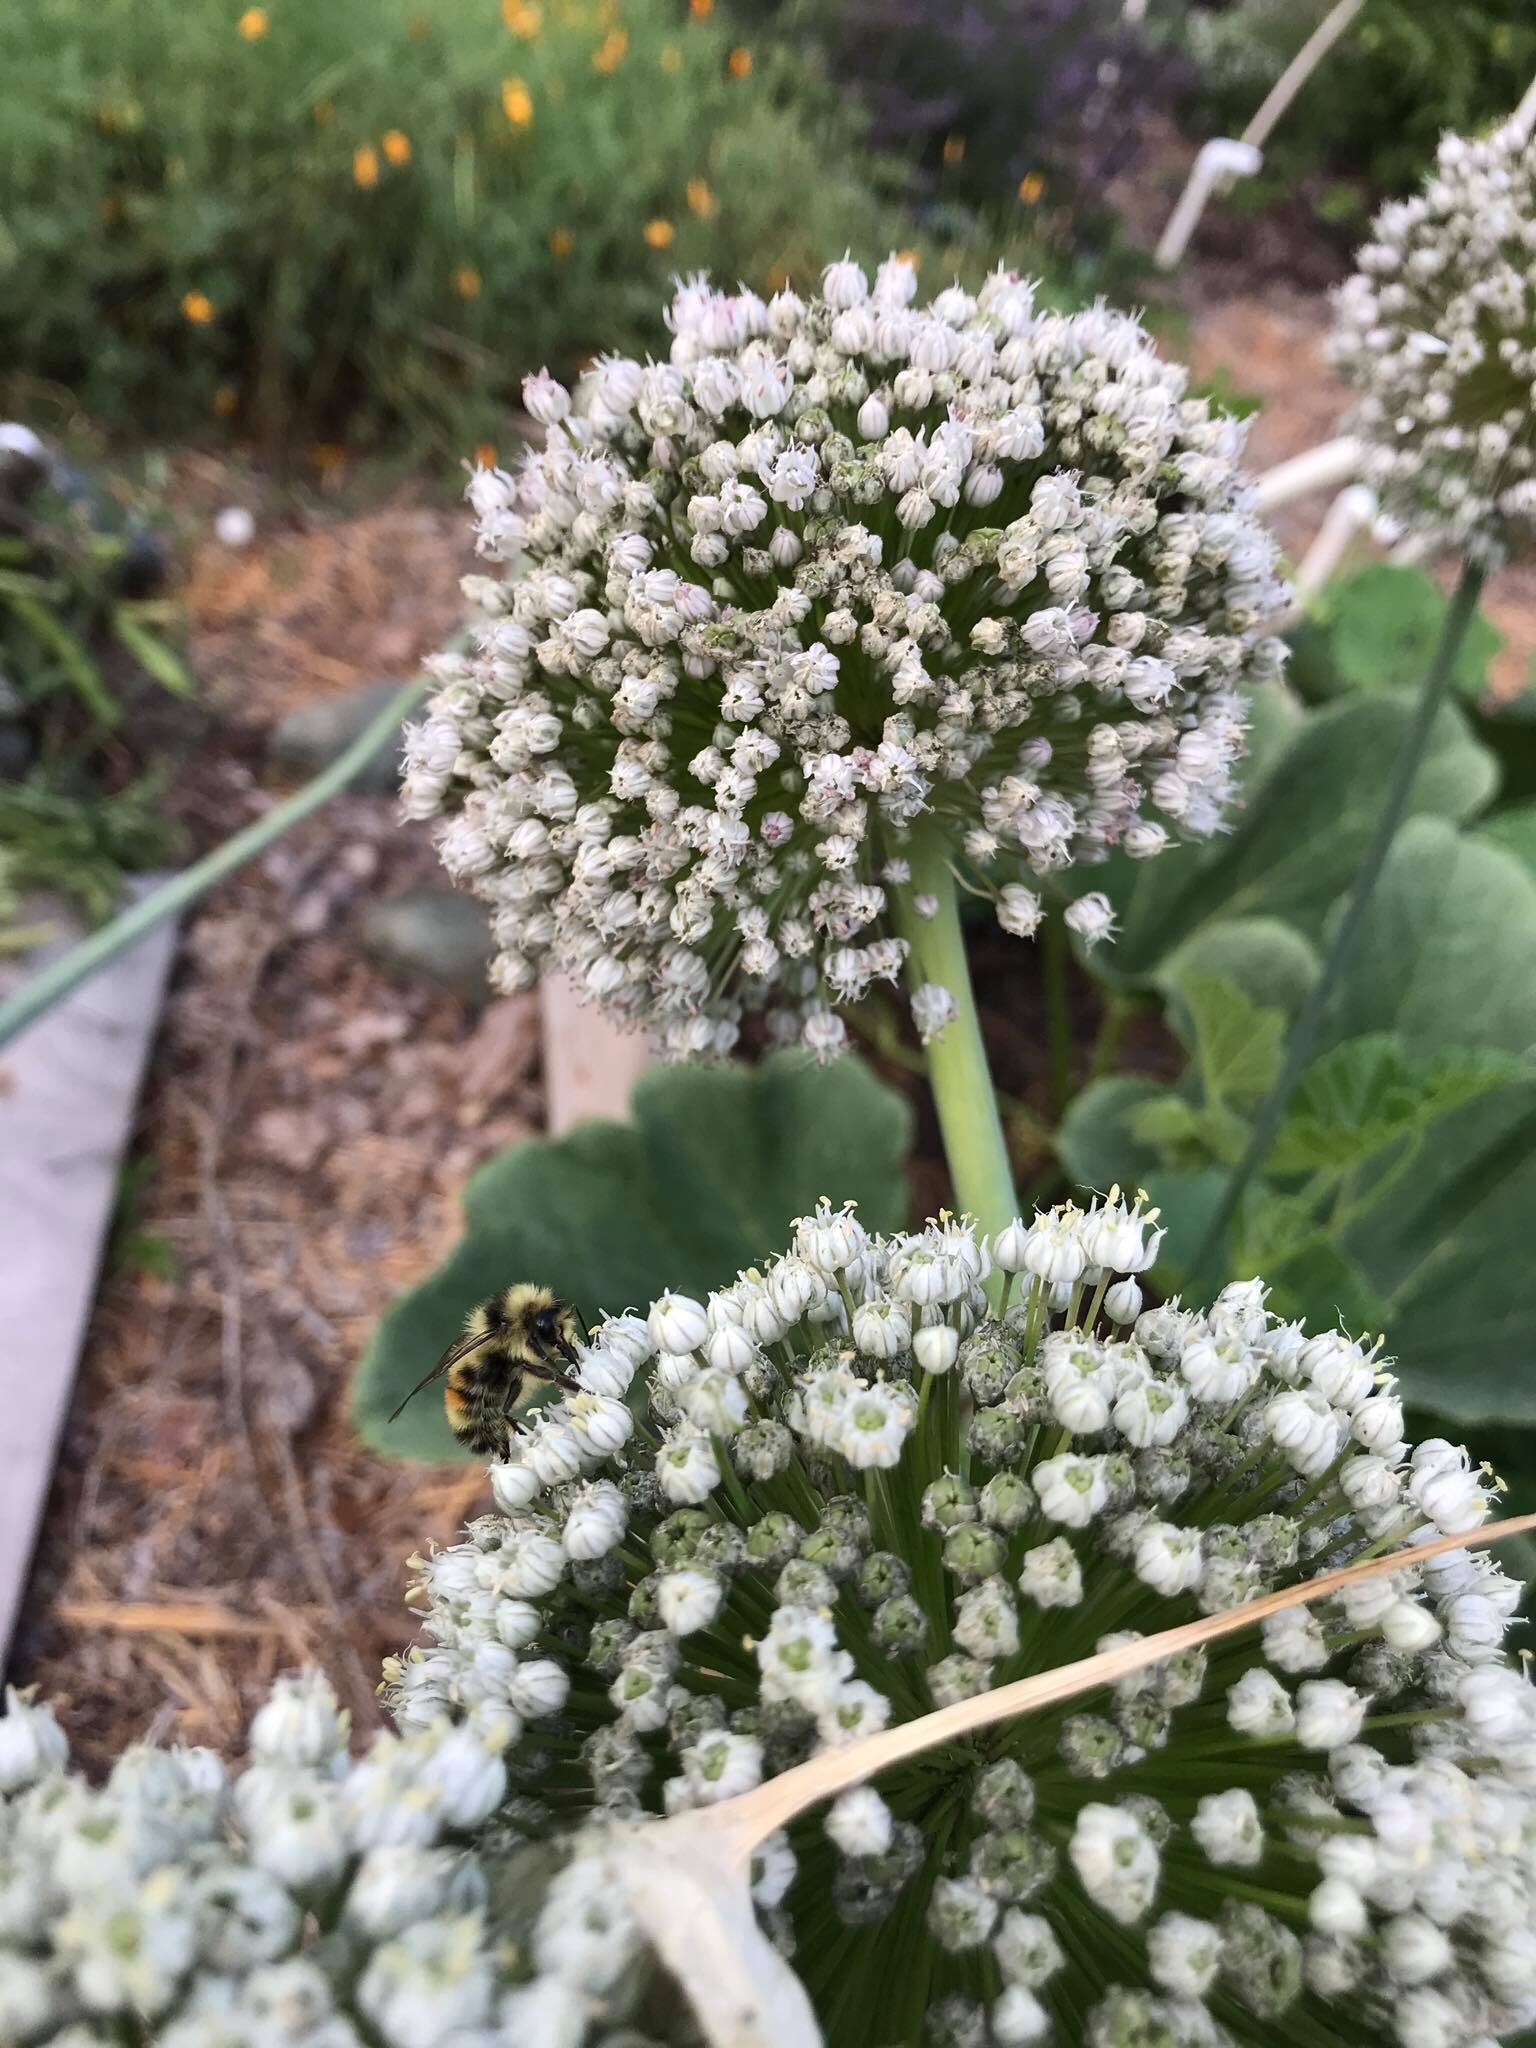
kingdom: Animalia
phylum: Arthropoda
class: Insecta
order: Hymenoptera
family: Apidae
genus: Bombus
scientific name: Bombus vancouverensis
